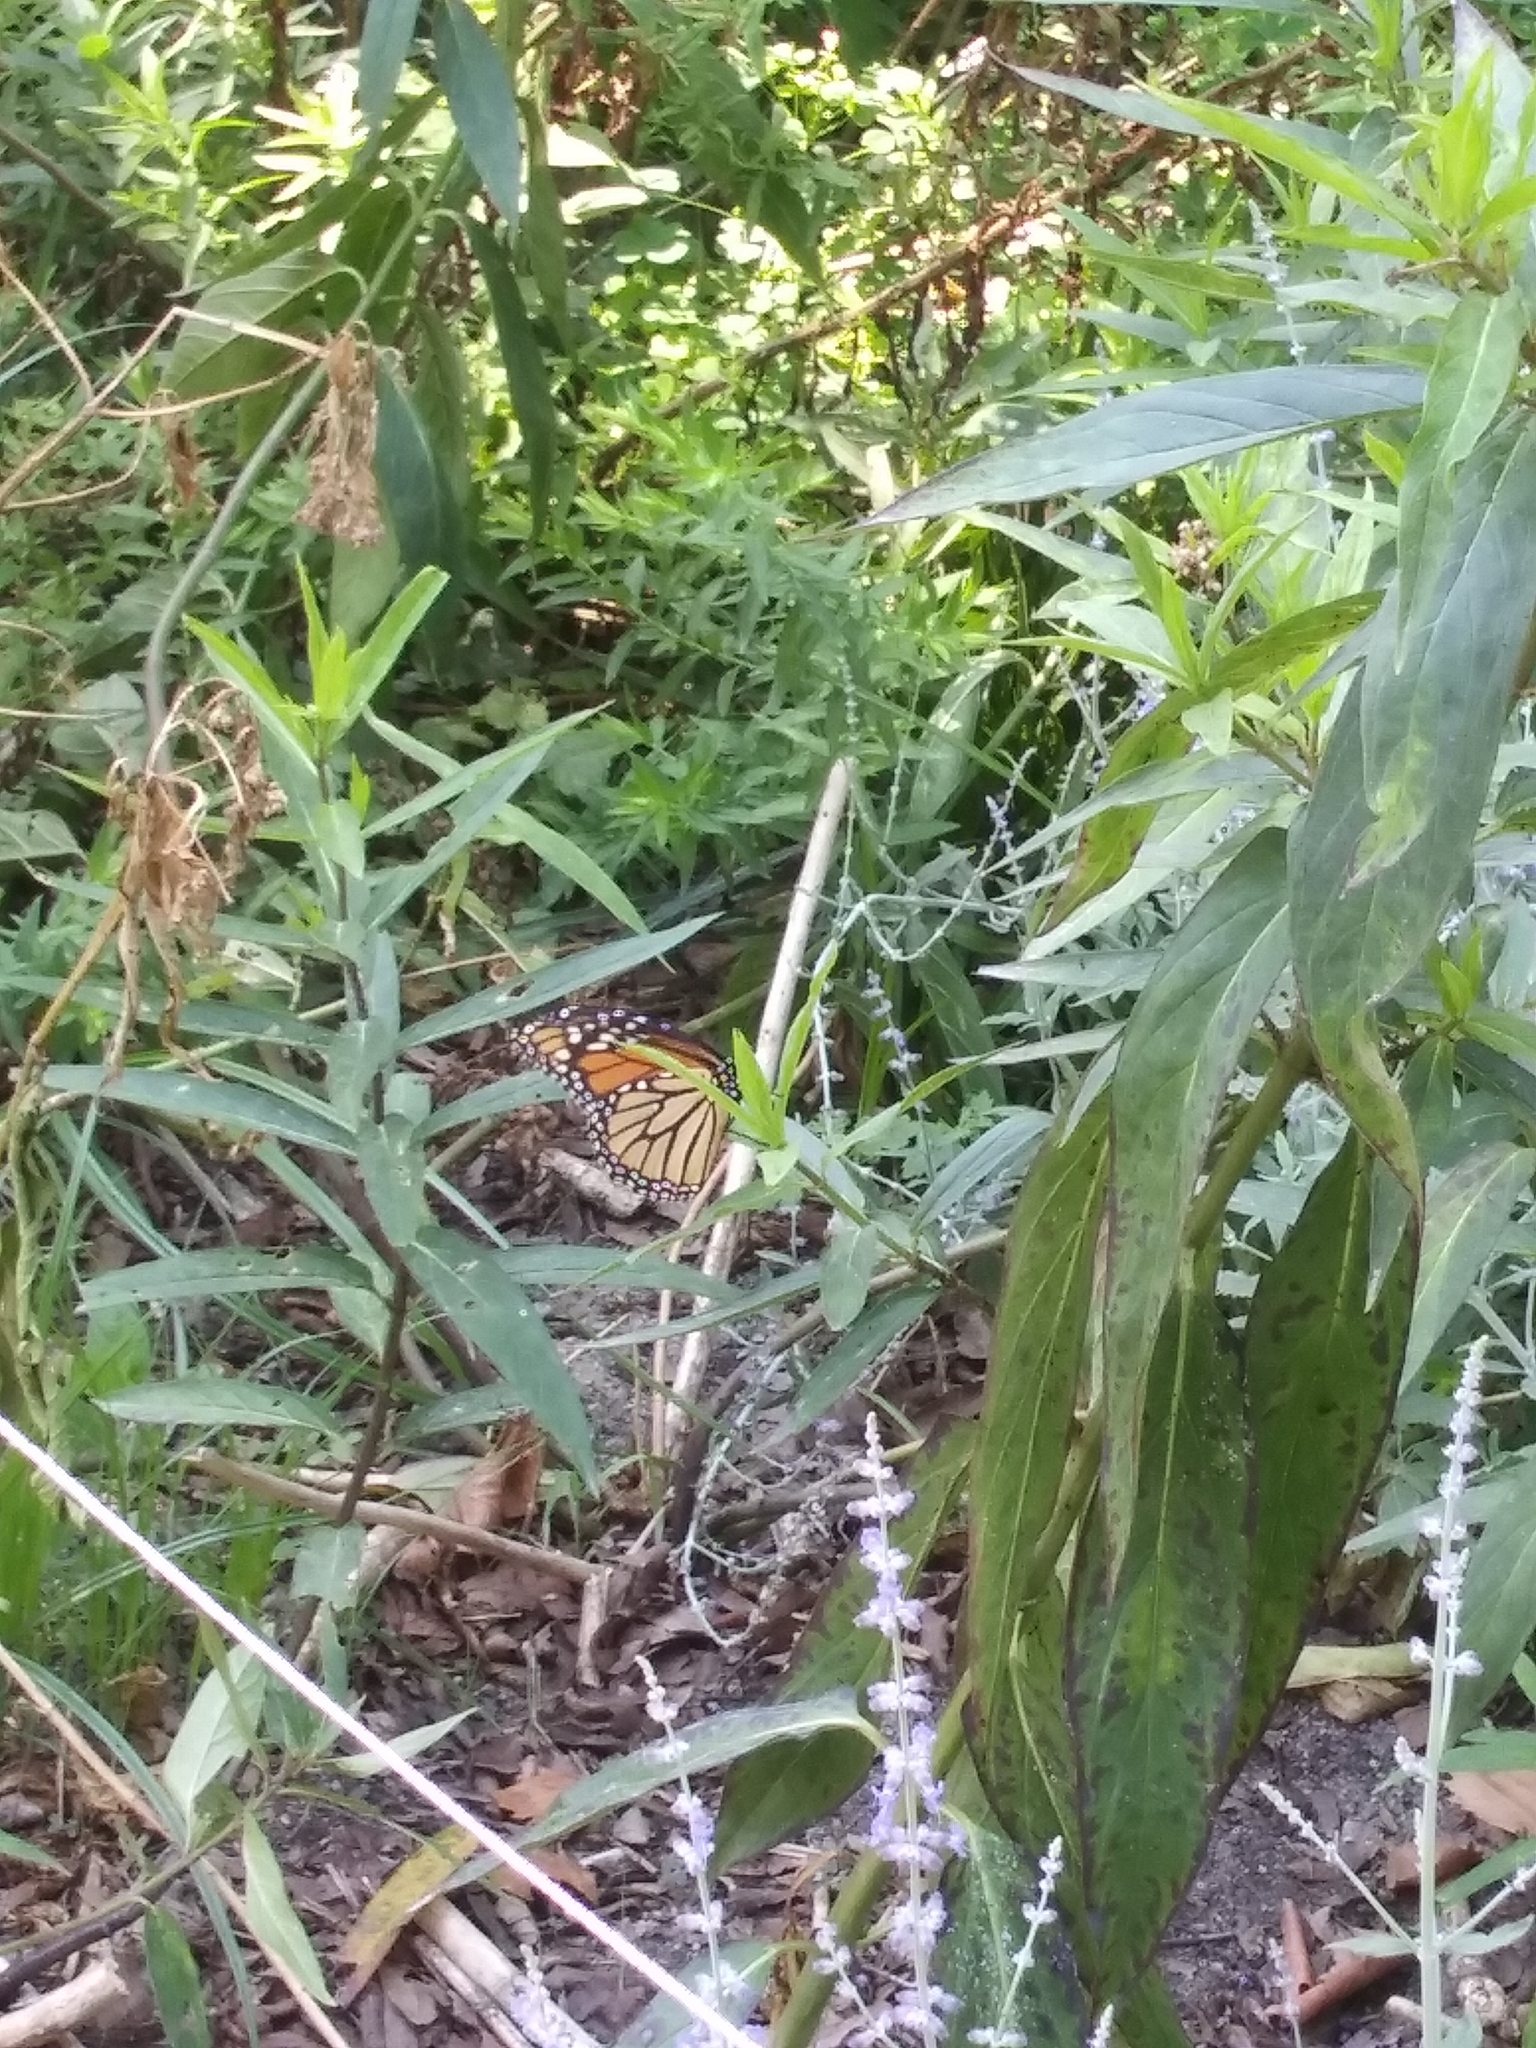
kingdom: Animalia
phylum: Arthropoda
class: Insecta
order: Lepidoptera
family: Nymphalidae
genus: Danaus
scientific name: Danaus plexippus
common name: Monarch
